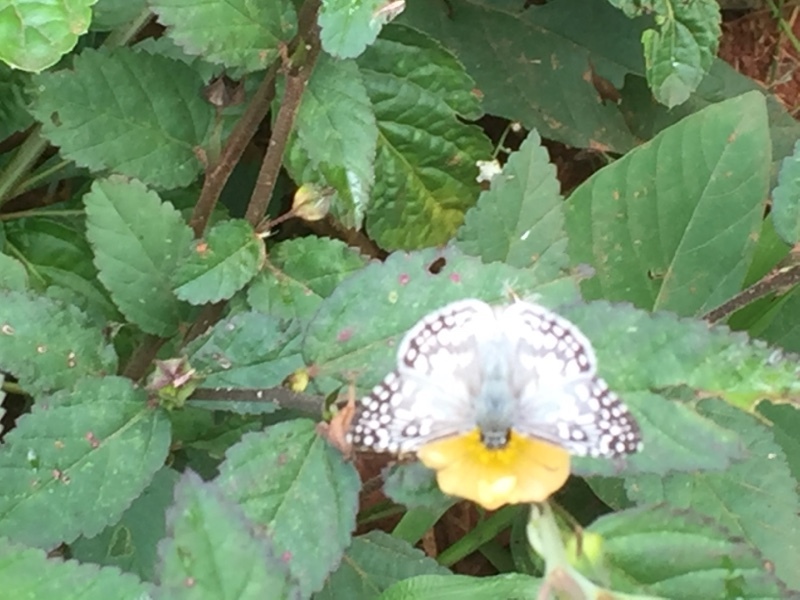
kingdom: Animalia
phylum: Arthropoda
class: Insecta
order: Lepidoptera
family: Hesperiidae
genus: Pyrgus
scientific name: Pyrgus oileus
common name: Tropical checkered-skipper
